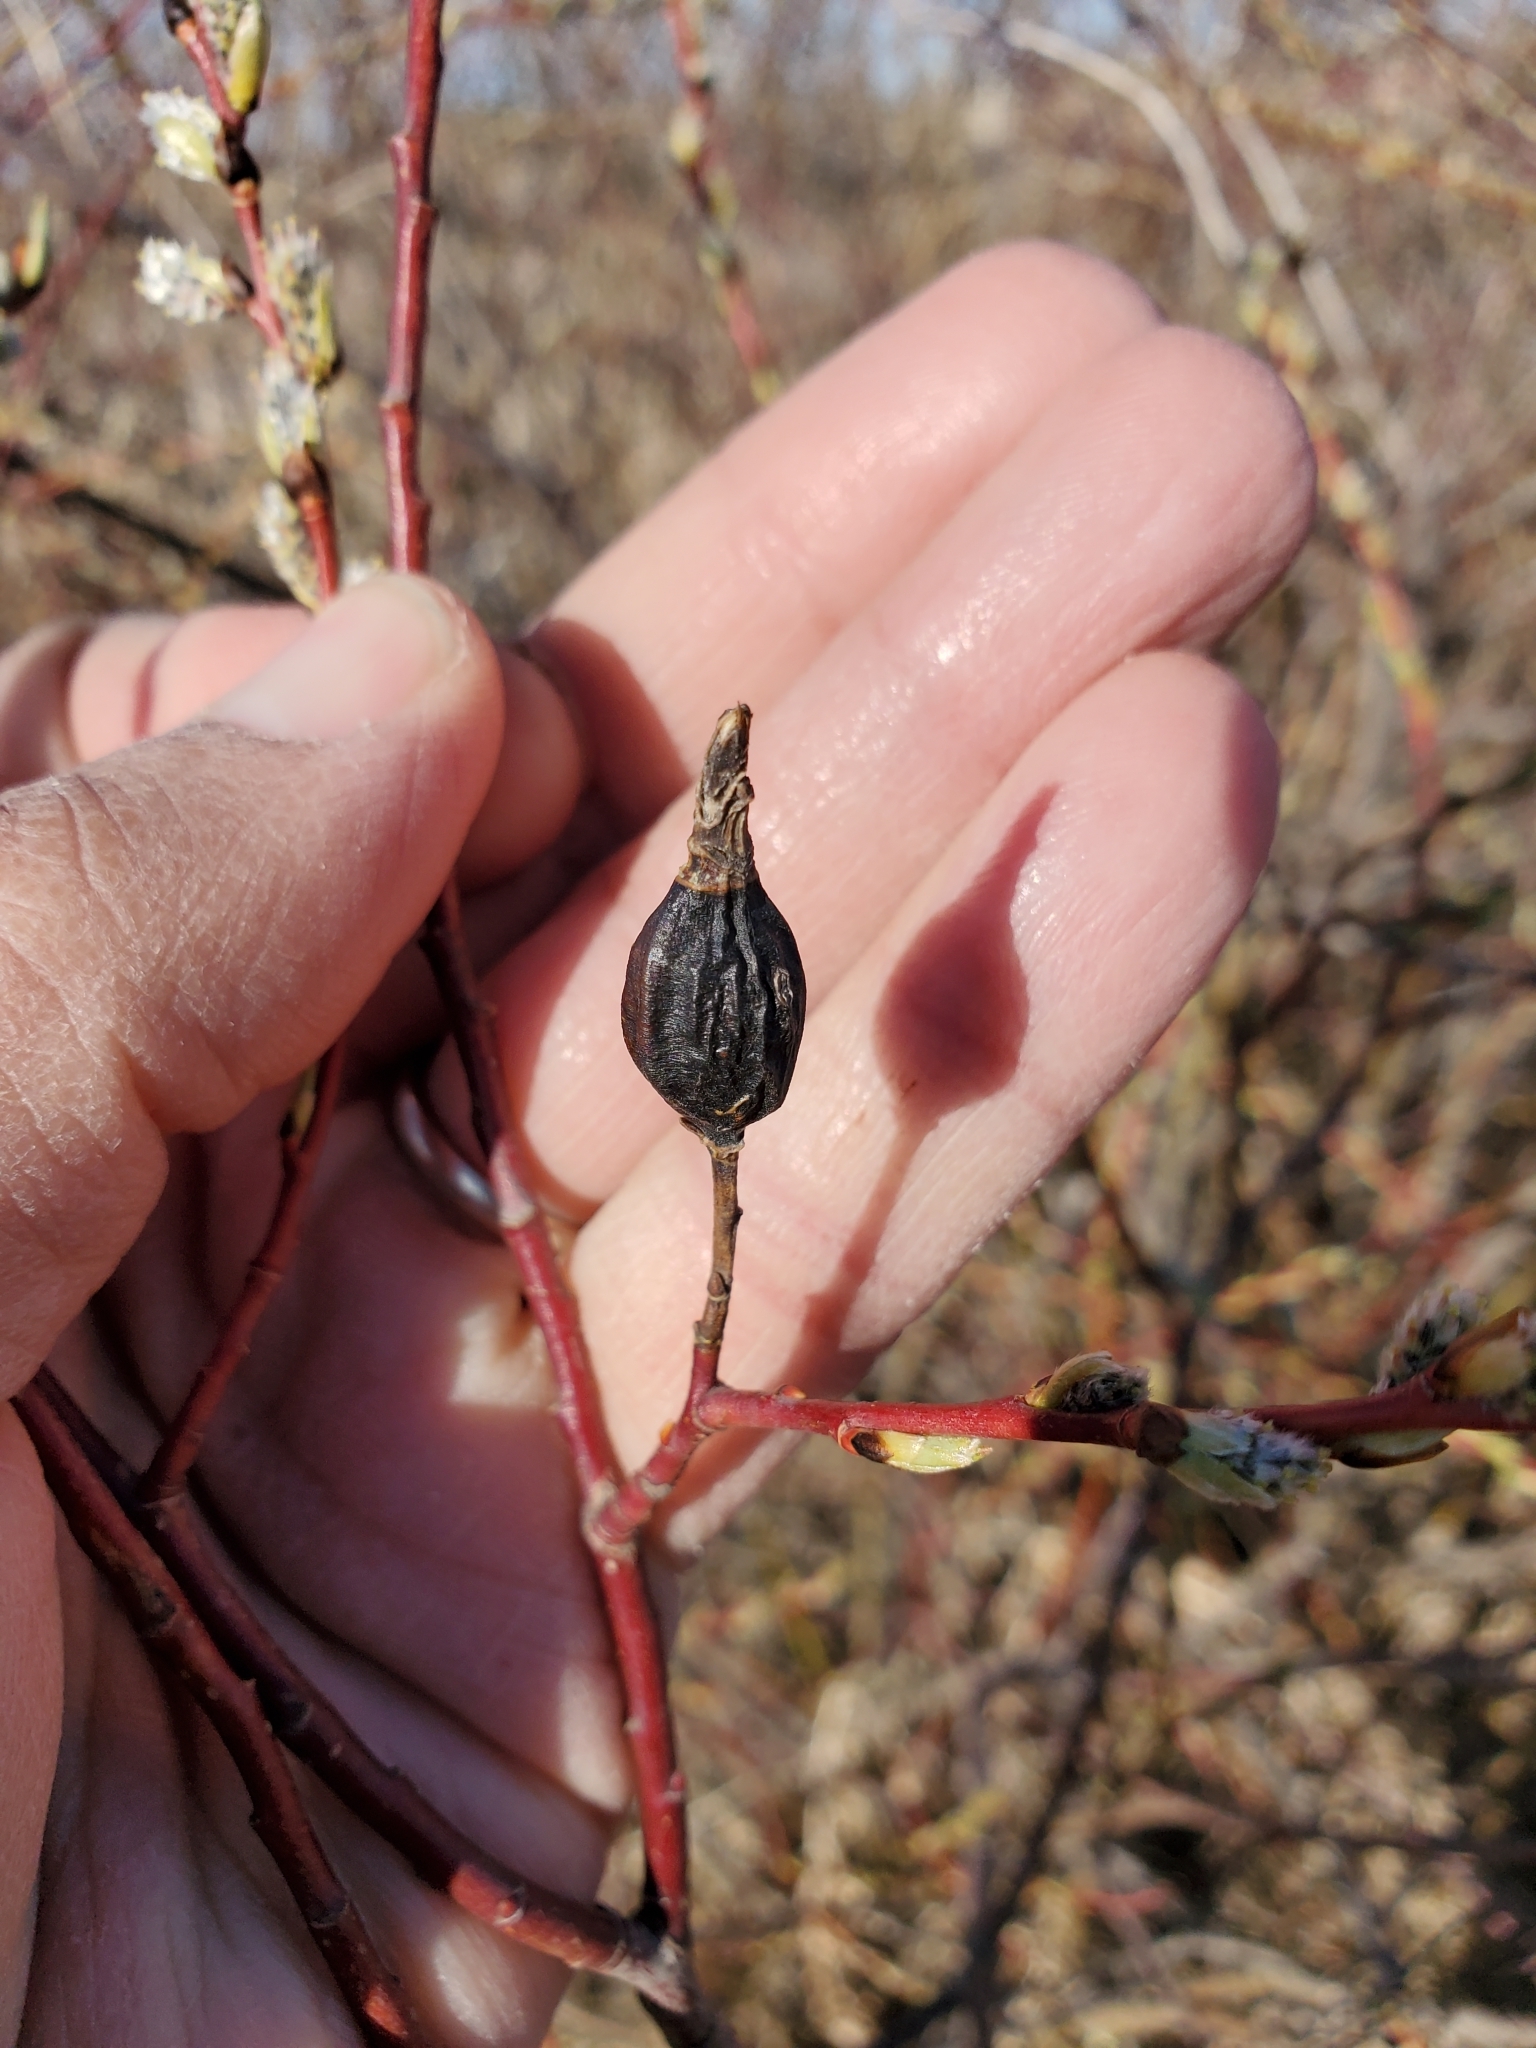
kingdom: Animalia
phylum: Arthropoda
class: Insecta
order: Diptera
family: Cecidomyiidae
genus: Thecodiplosis
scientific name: Thecodiplosis pinirigidae
